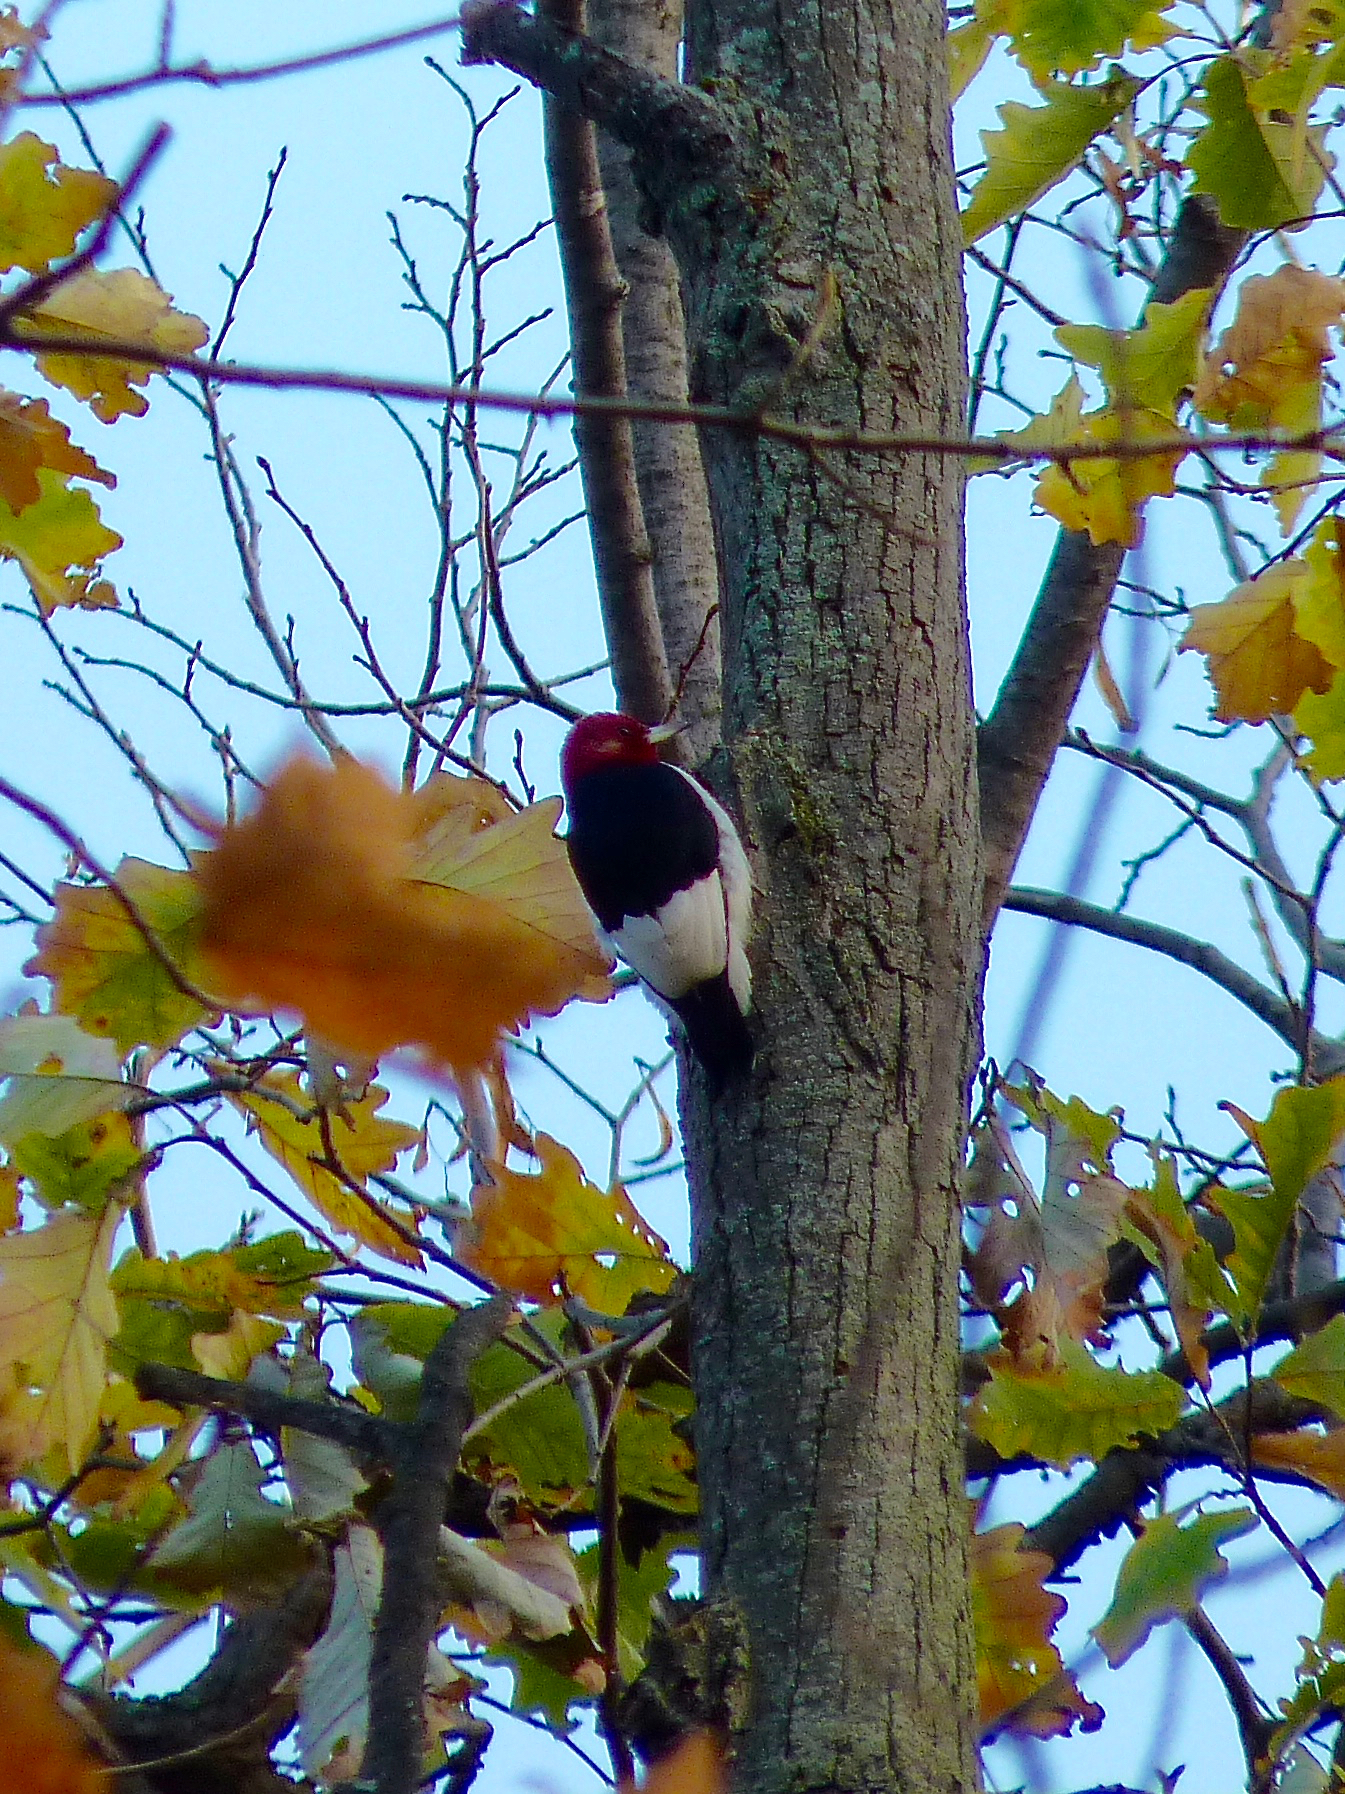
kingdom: Animalia
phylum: Chordata
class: Aves
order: Piciformes
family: Picidae
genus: Melanerpes
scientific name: Melanerpes erythrocephalus
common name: Red-headed woodpecker
